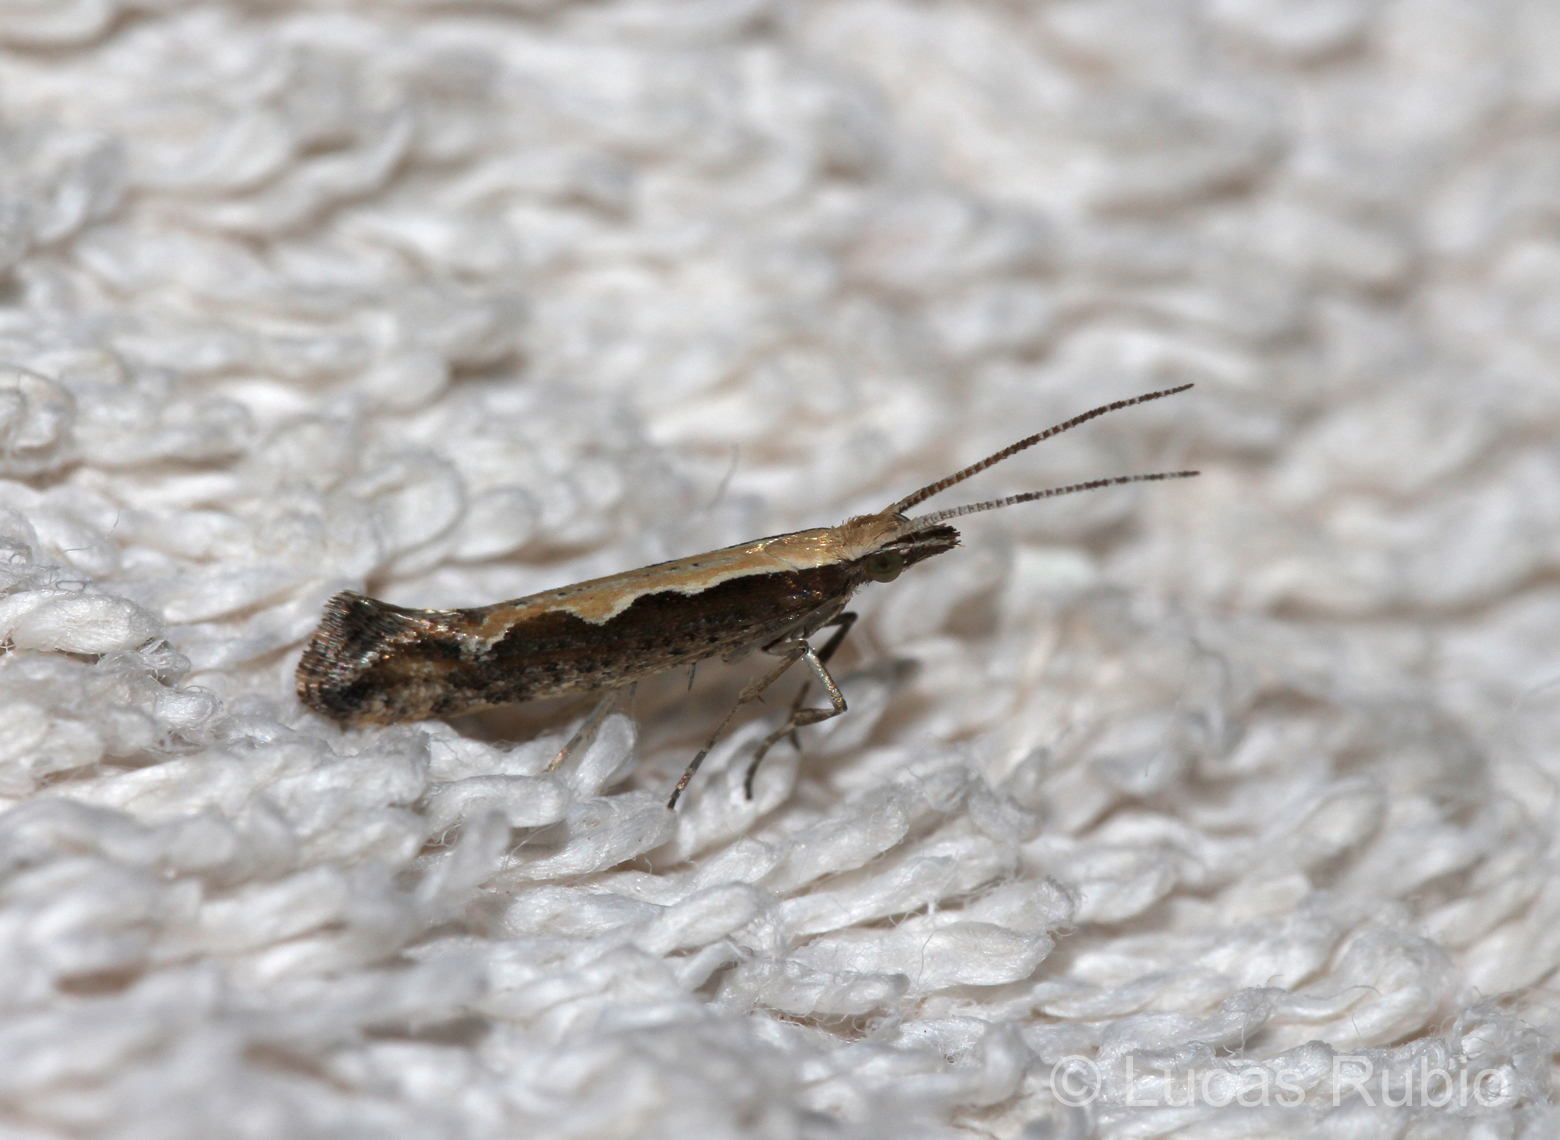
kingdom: Animalia
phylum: Arthropoda
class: Insecta
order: Lepidoptera
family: Plutellidae
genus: Plutella
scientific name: Plutella xylostella
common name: Diamond-back moth
